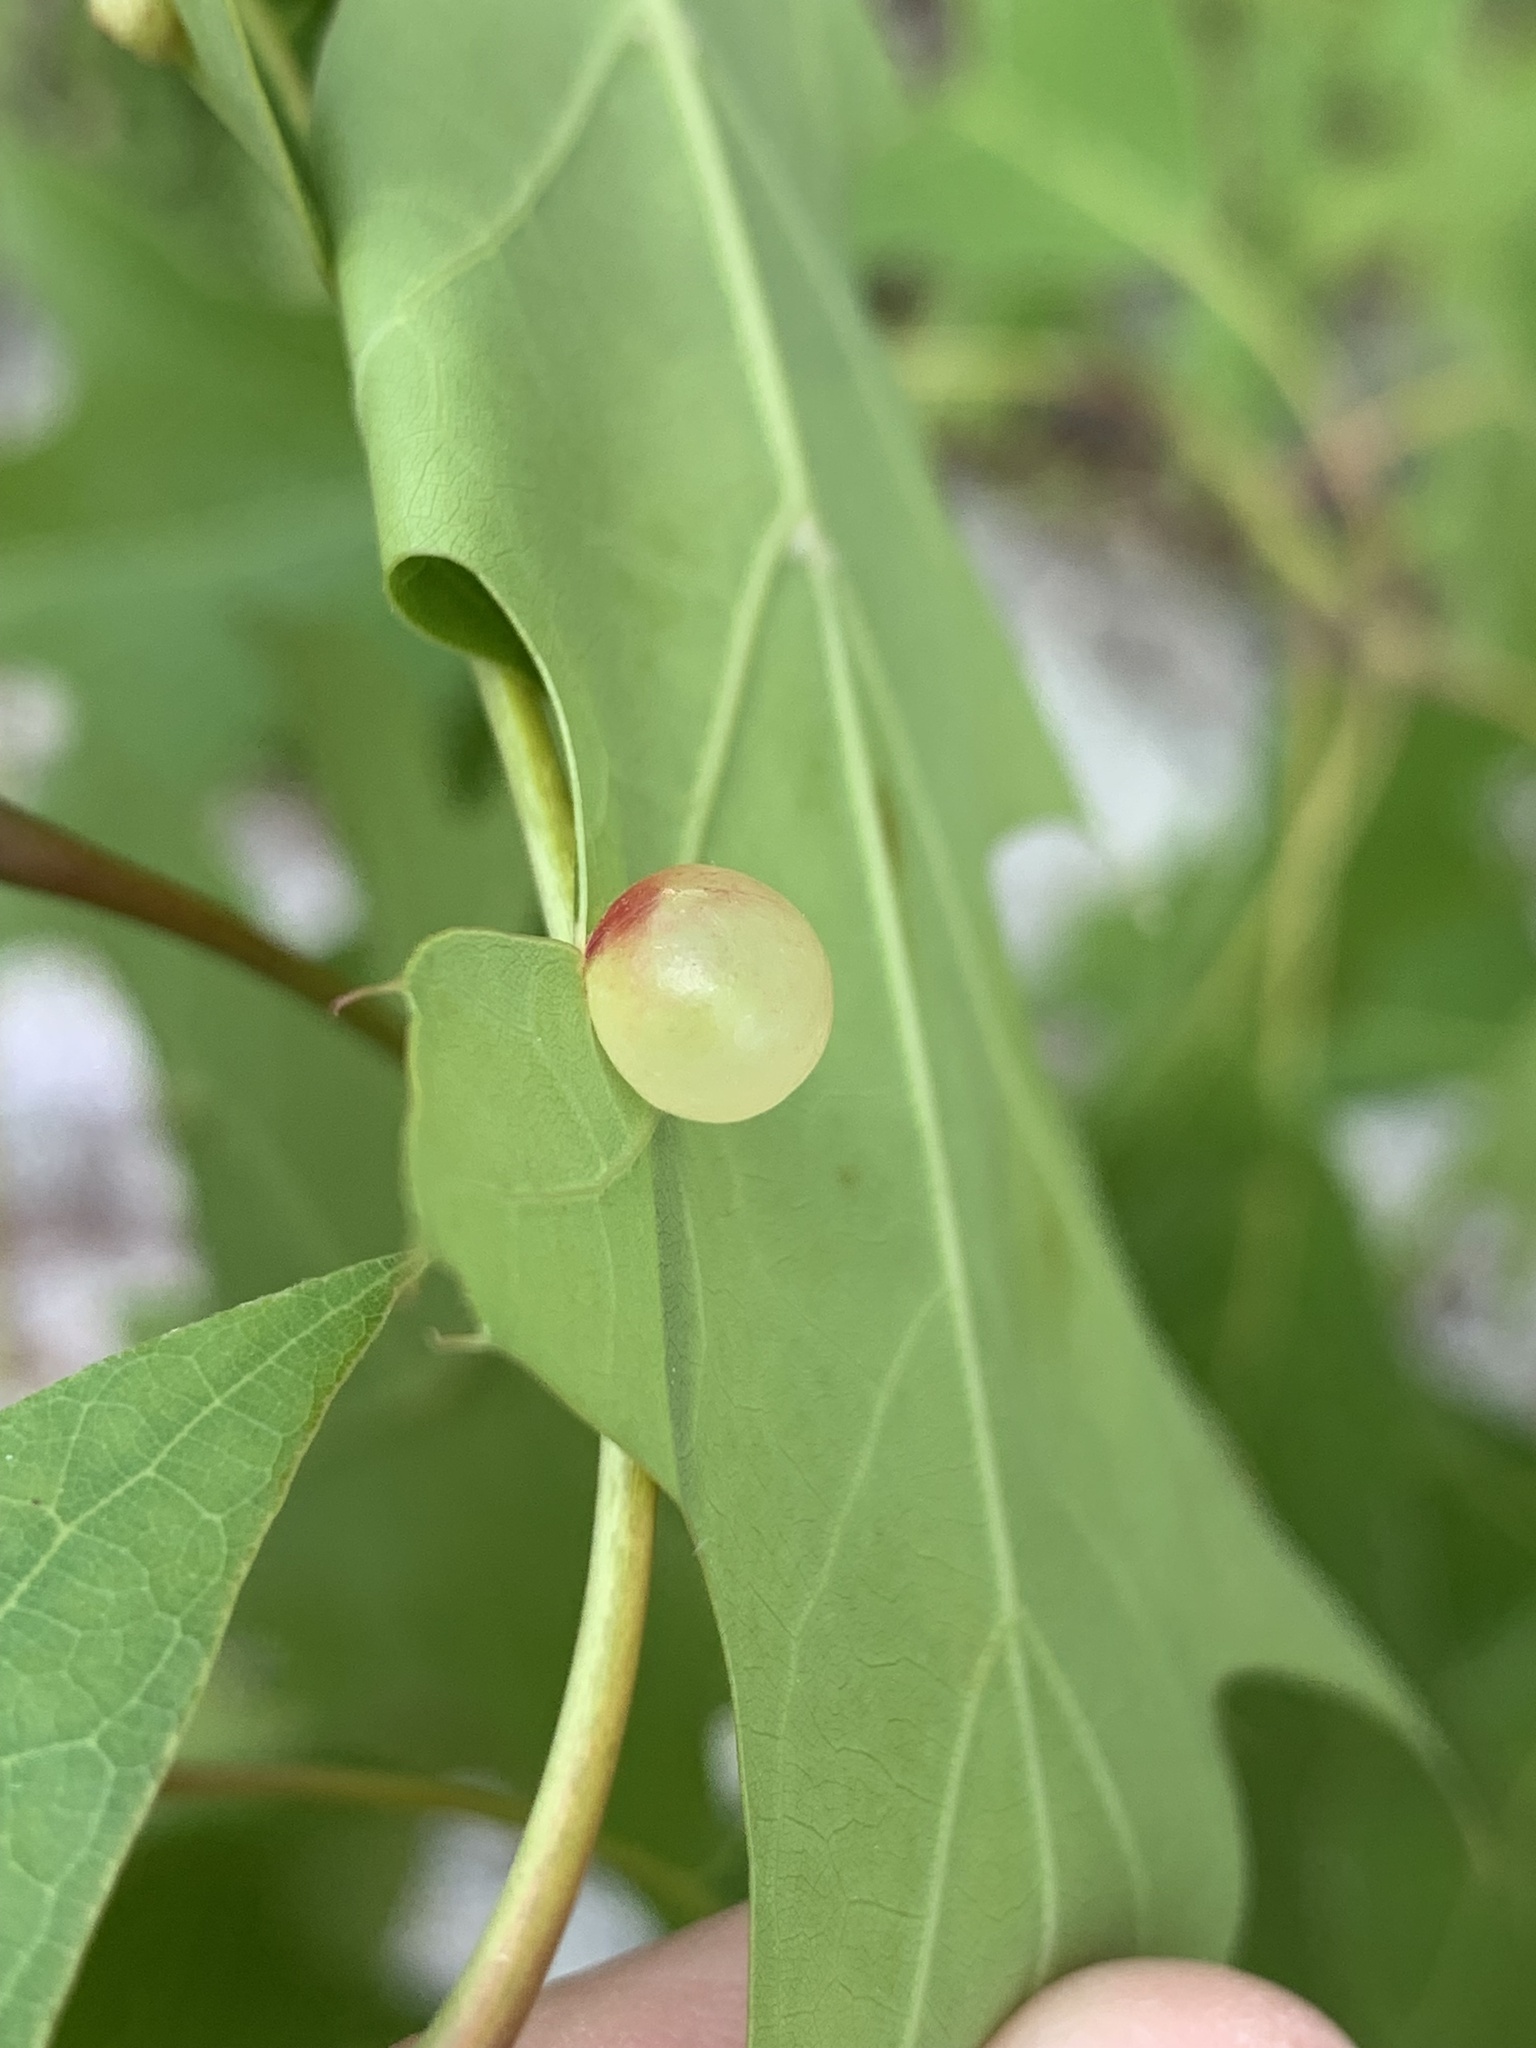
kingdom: Animalia
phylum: Arthropoda
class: Insecta
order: Hymenoptera
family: Cynipidae
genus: Amphibolips
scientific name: Amphibolips
